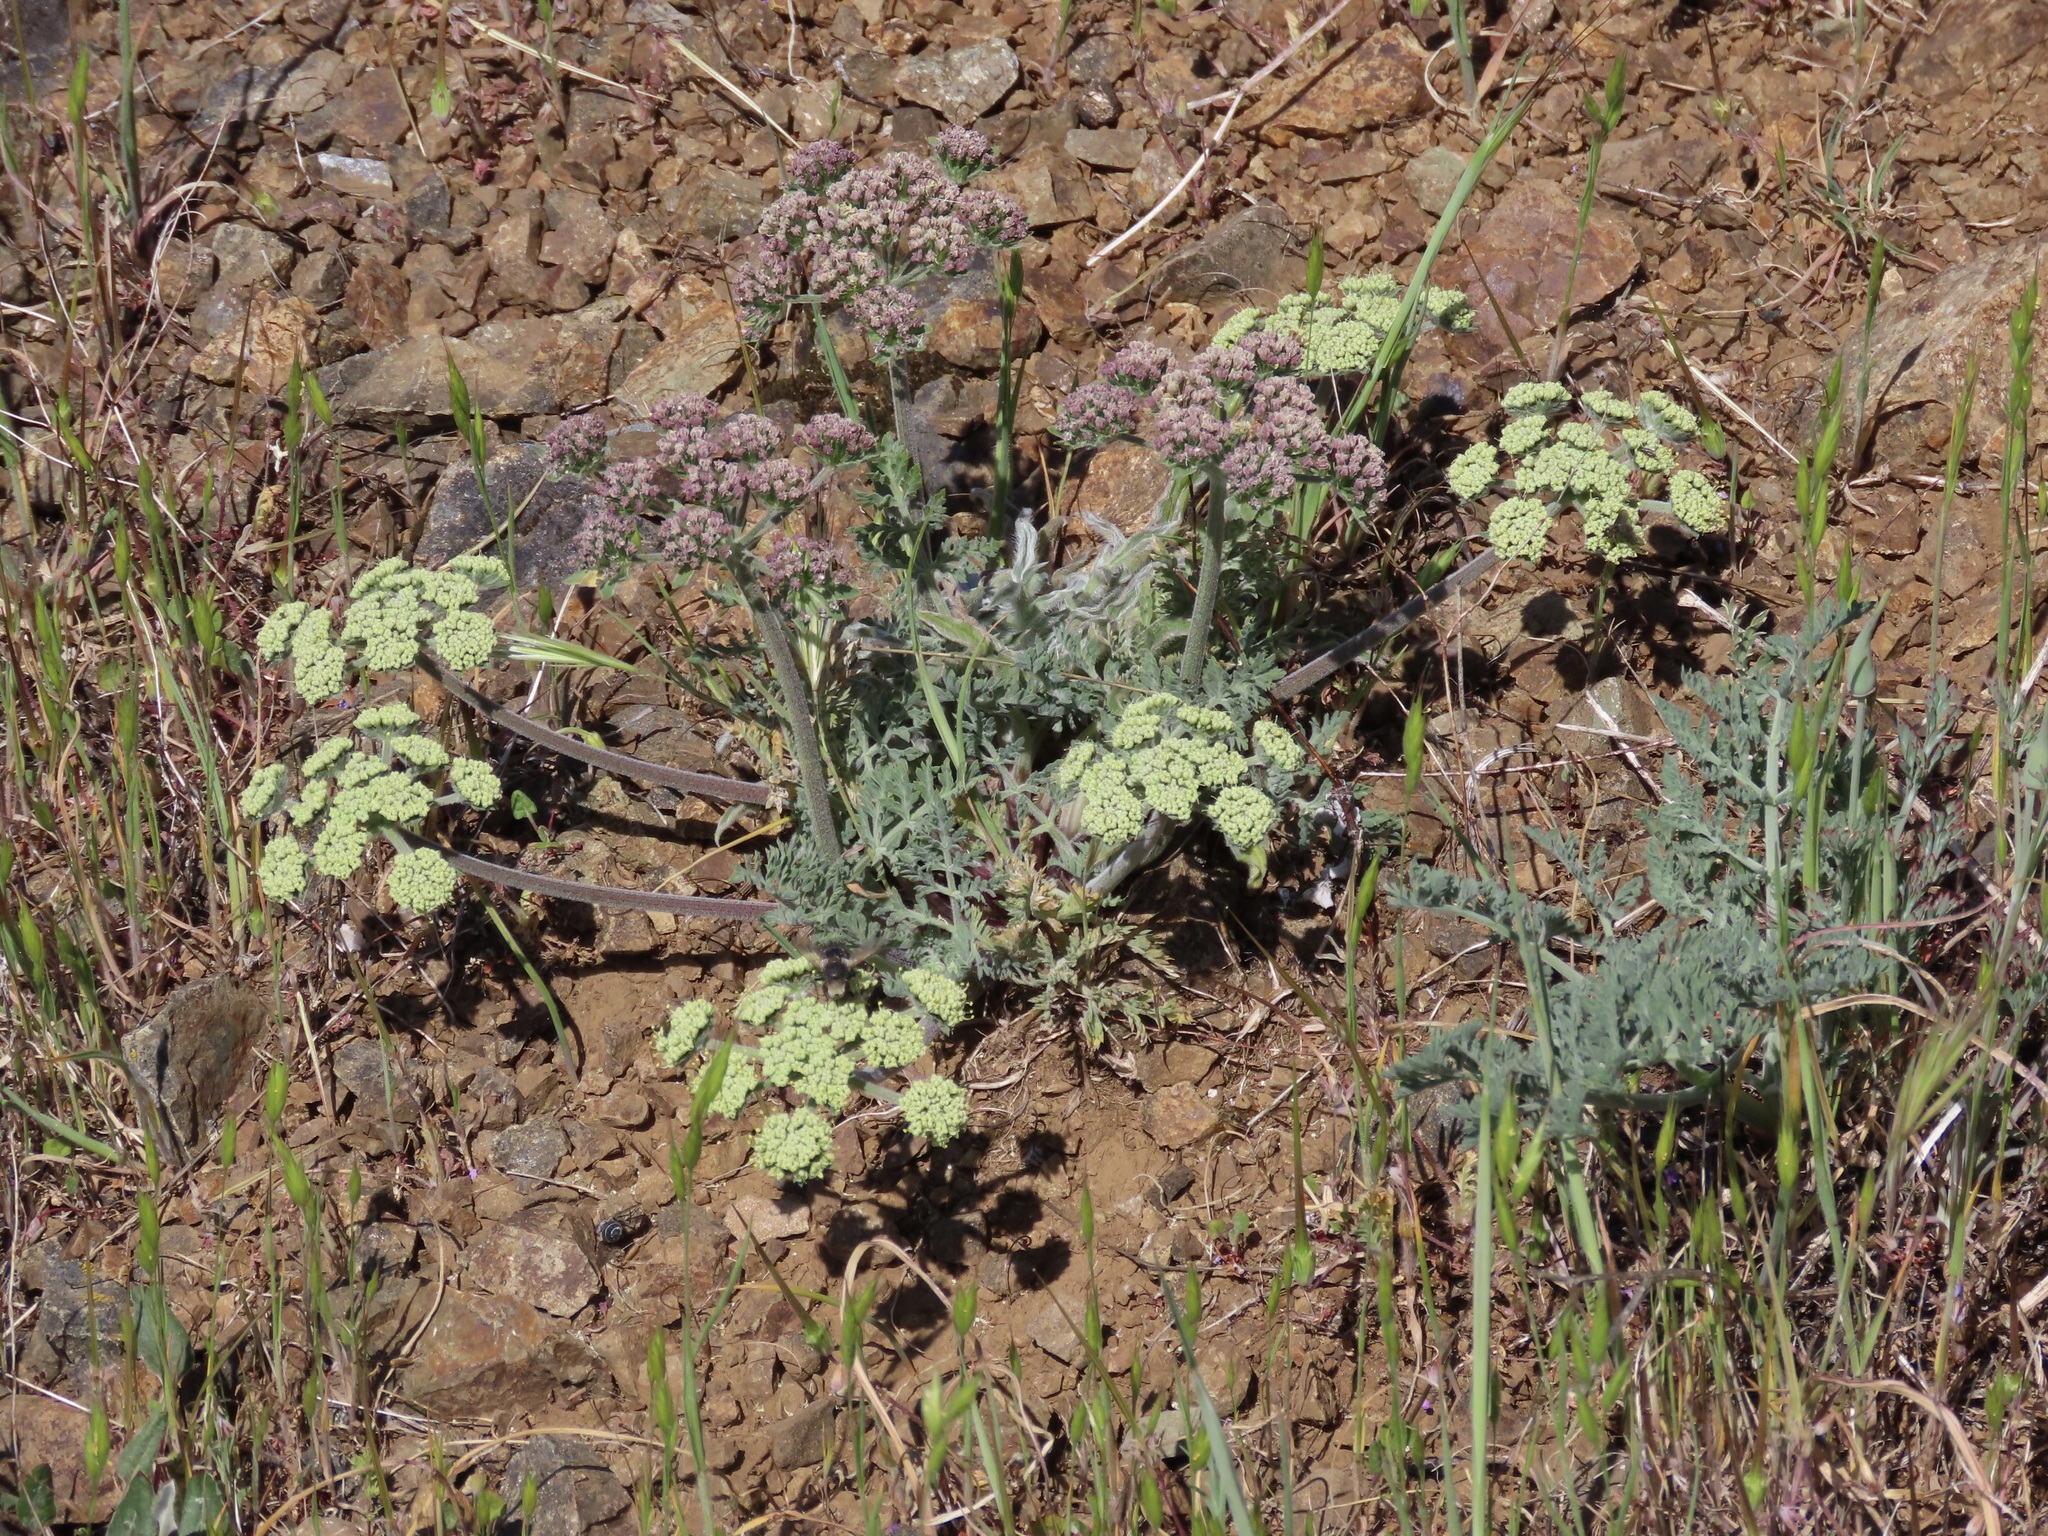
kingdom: Plantae
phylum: Tracheophyta
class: Magnoliopsida
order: Apiales
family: Apiaceae
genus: Lomatium
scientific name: Lomatium dasycarpum
